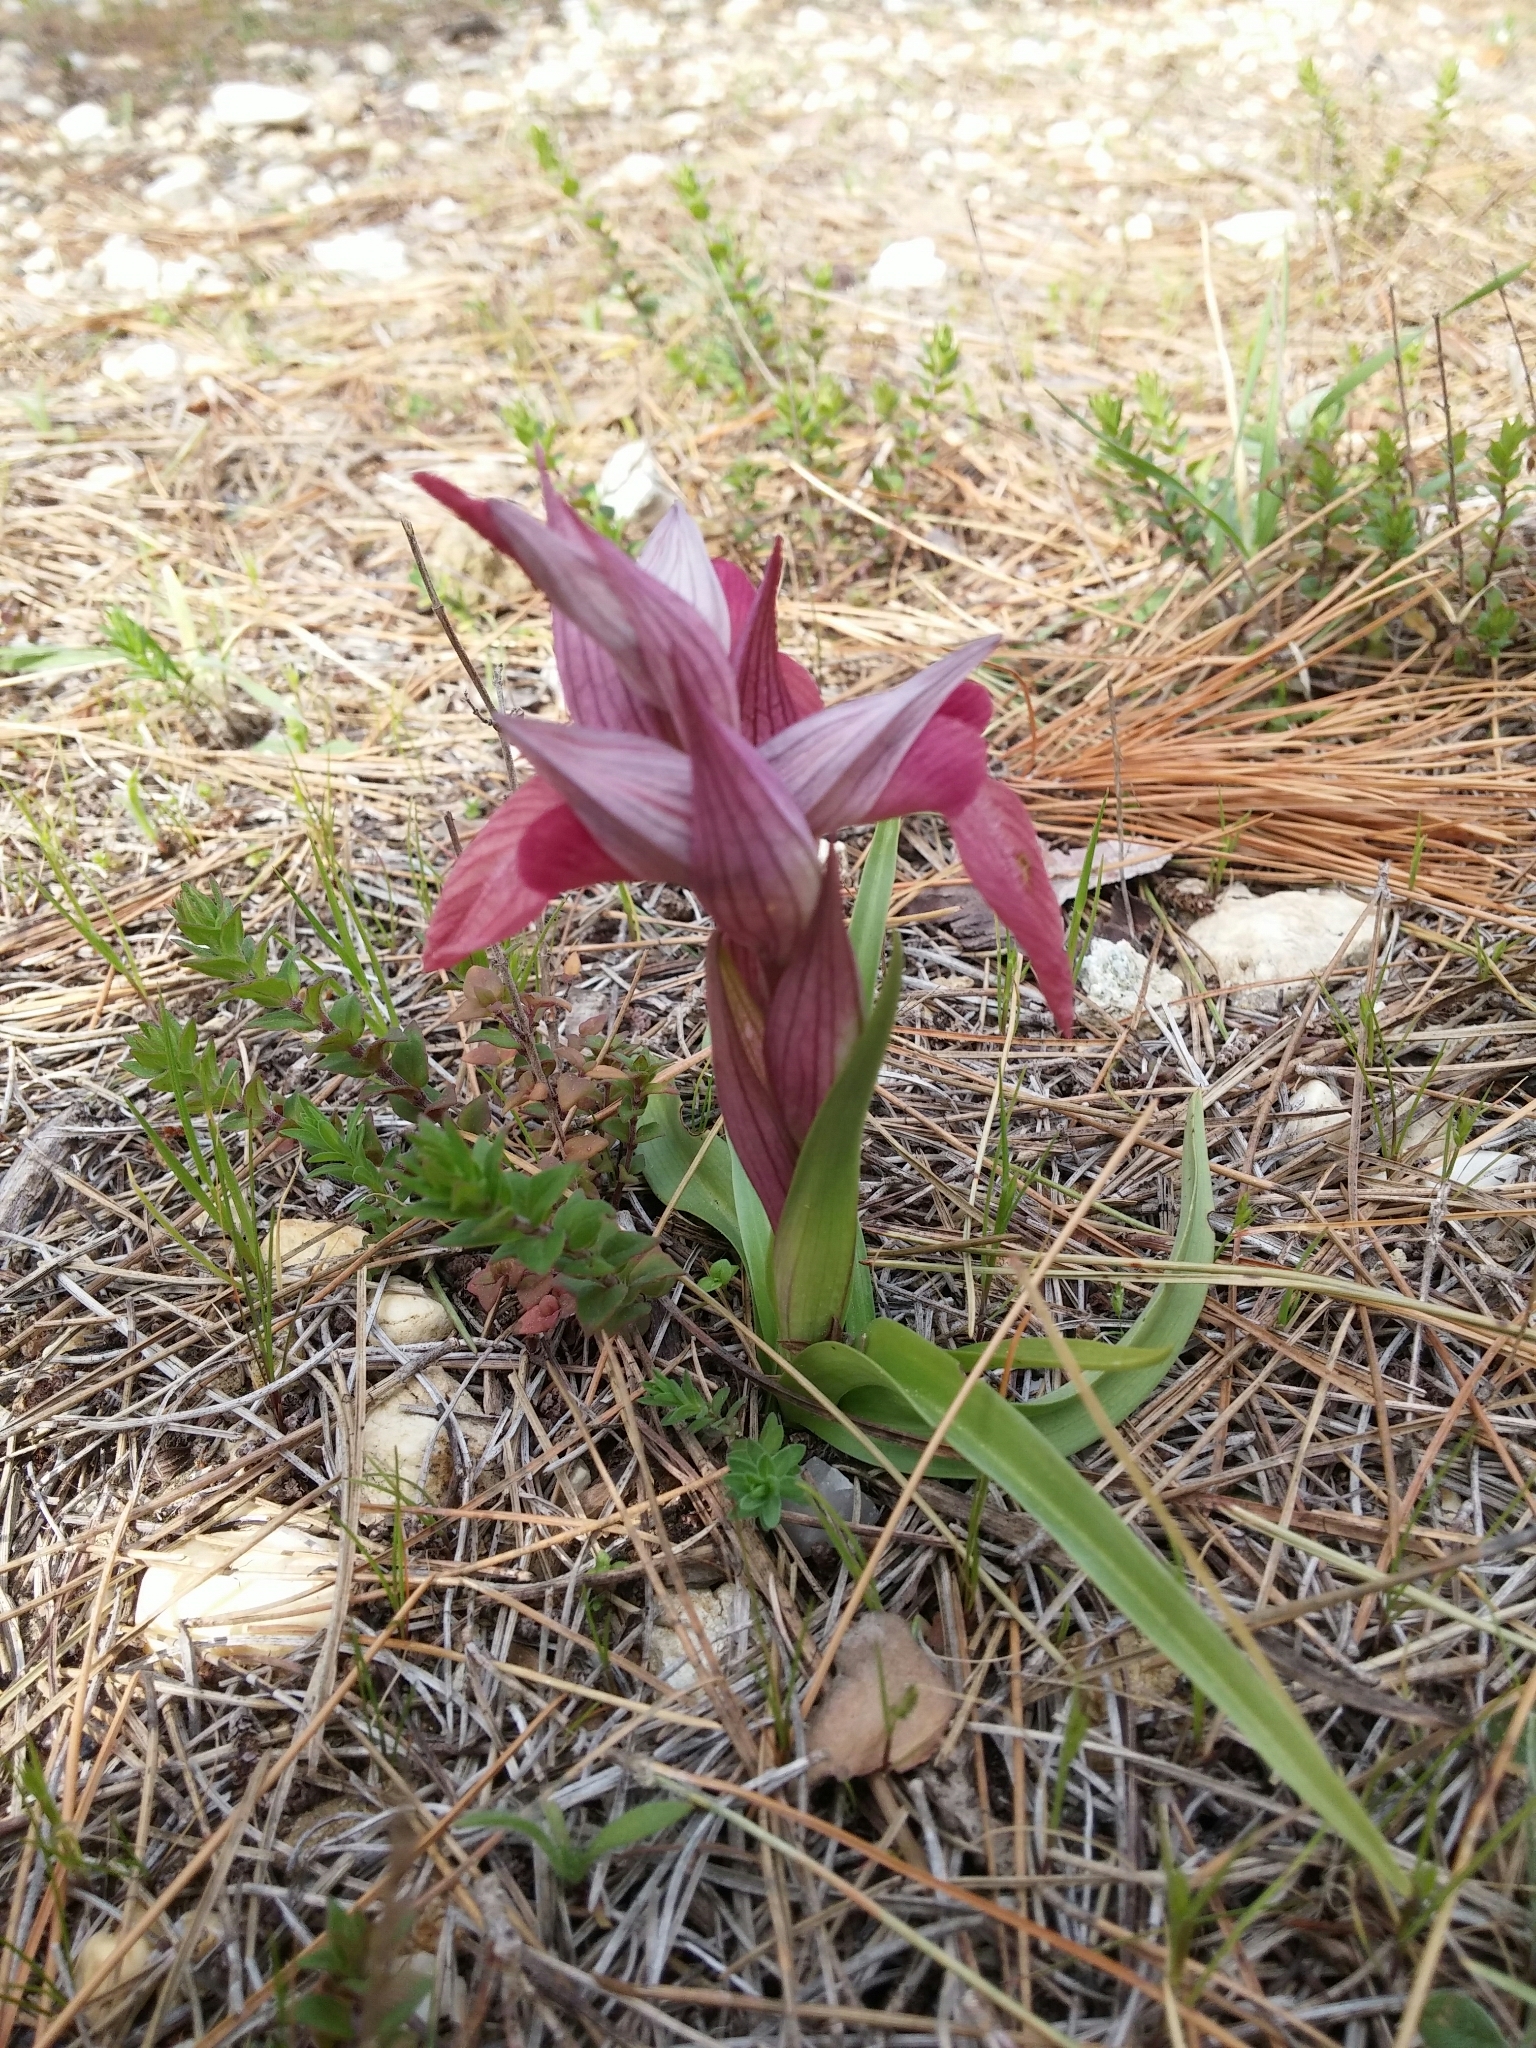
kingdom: Plantae
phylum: Tracheophyta
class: Liliopsida
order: Asparagales
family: Orchidaceae
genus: Serapias
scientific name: Serapias neglecta
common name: Neglected serapias
